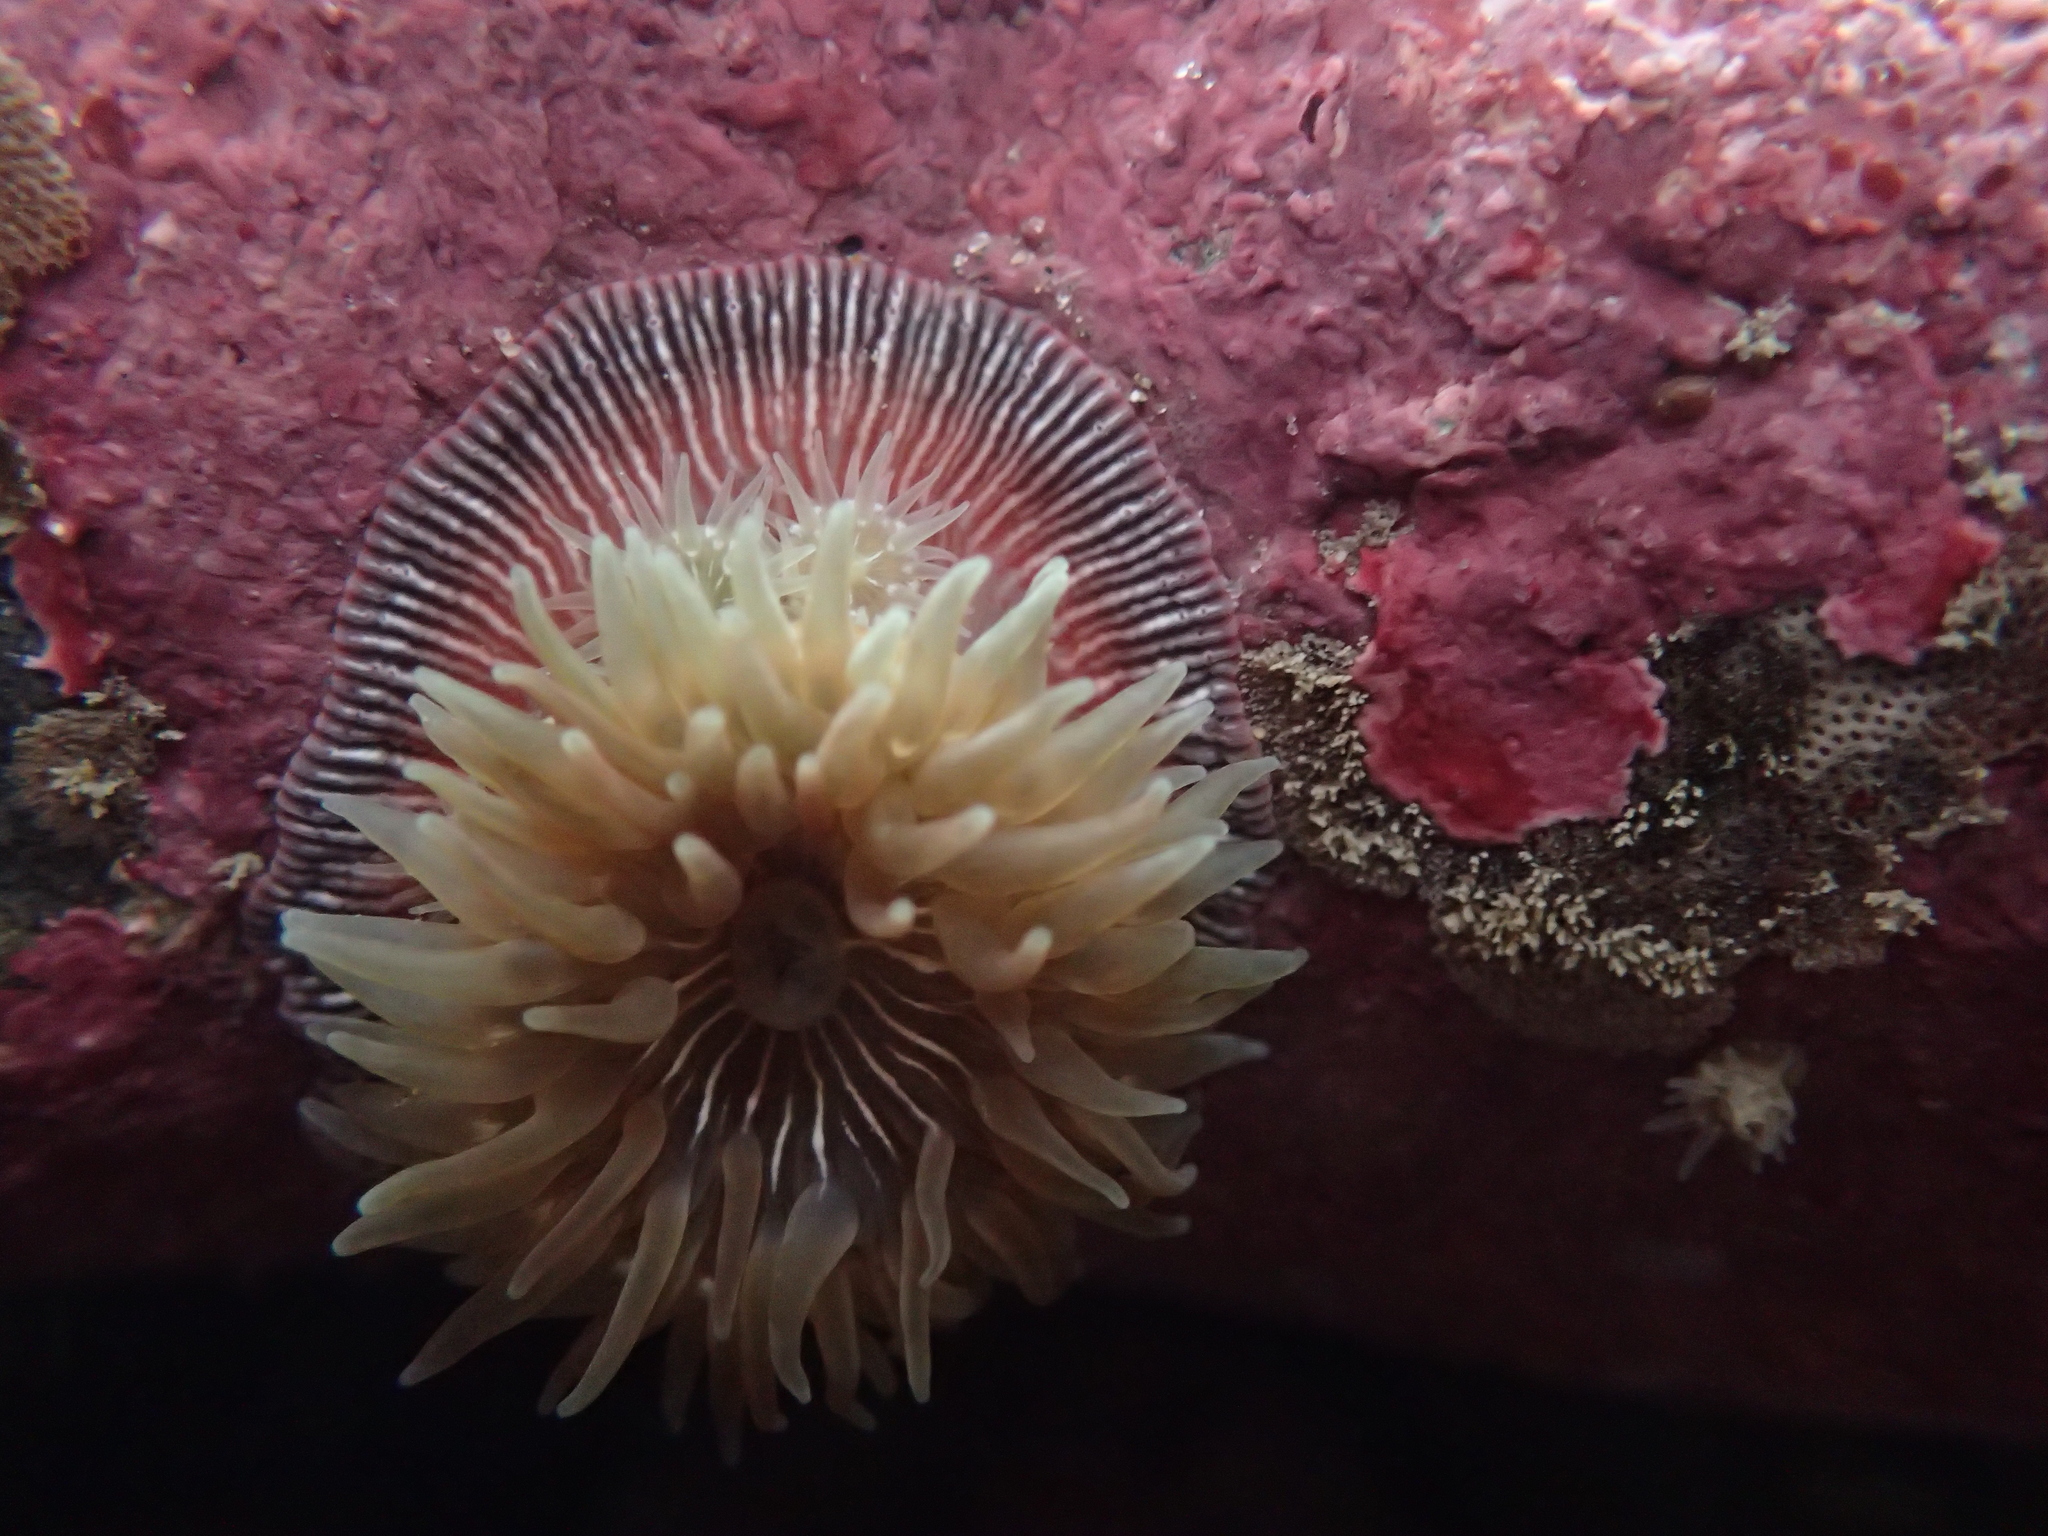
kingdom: Animalia
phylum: Cnidaria
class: Anthozoa
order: Actiniaria
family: Actiniidae
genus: Epiactis
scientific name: Epiactis prolifera
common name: Brooding anemone
